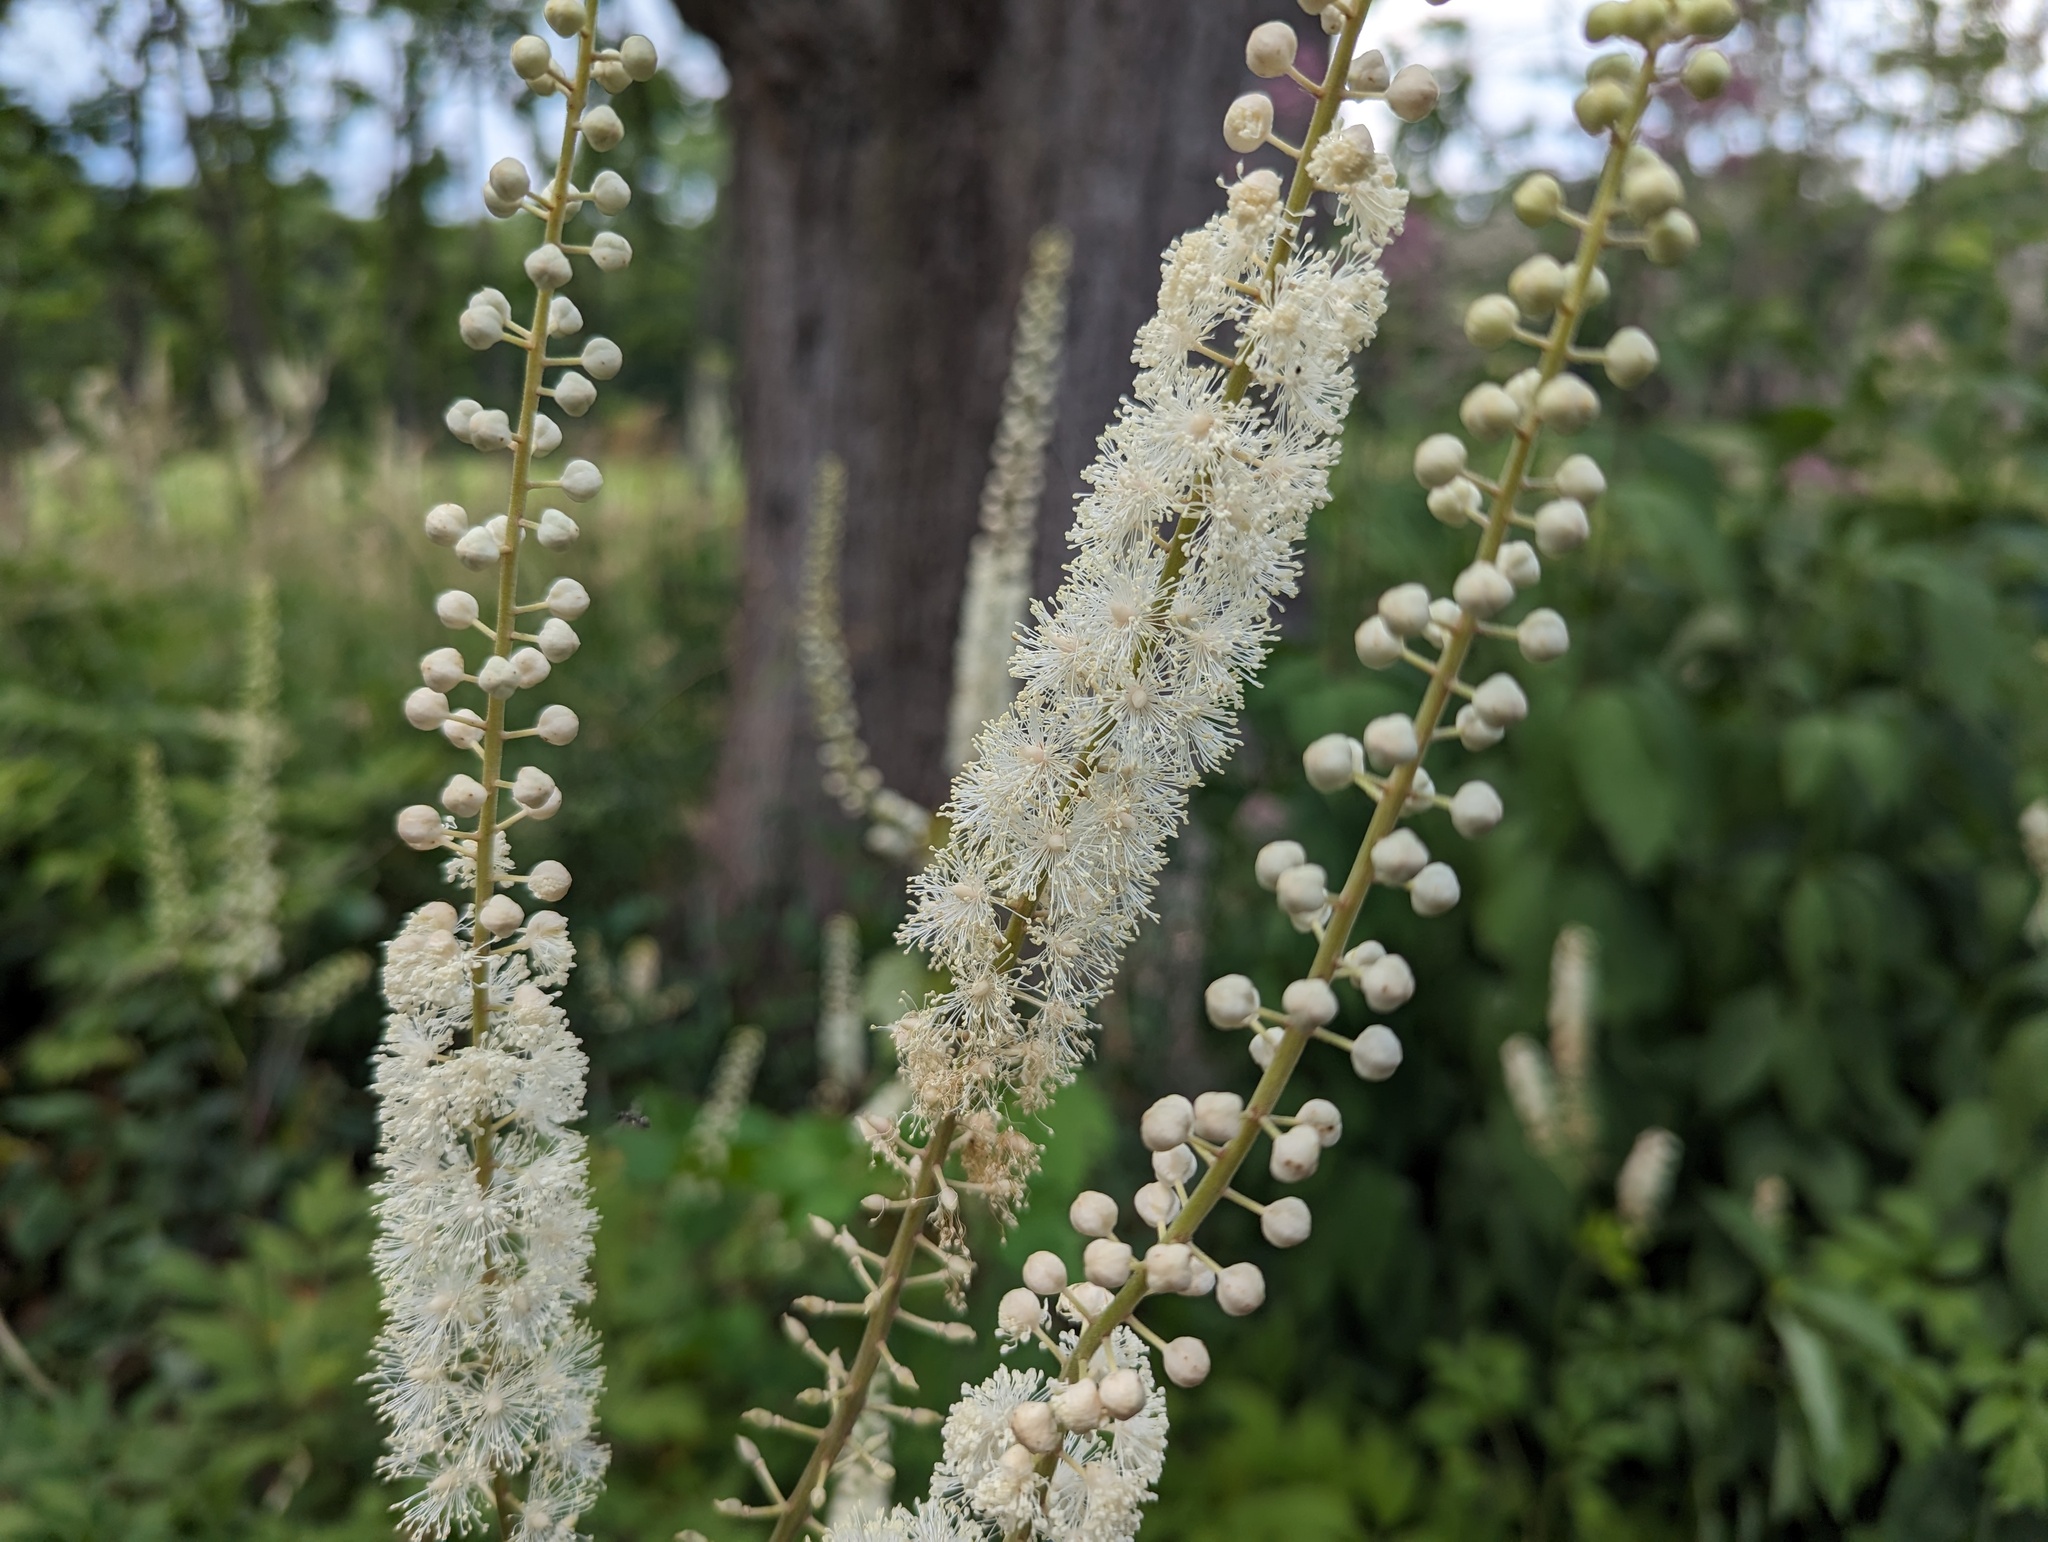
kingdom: Plantae
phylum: Tracheophyta
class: Magnoliopsida
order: Ranunculales
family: Ranunculaceae
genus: Actaea
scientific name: Actaea racemosa
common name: Black cohosh
